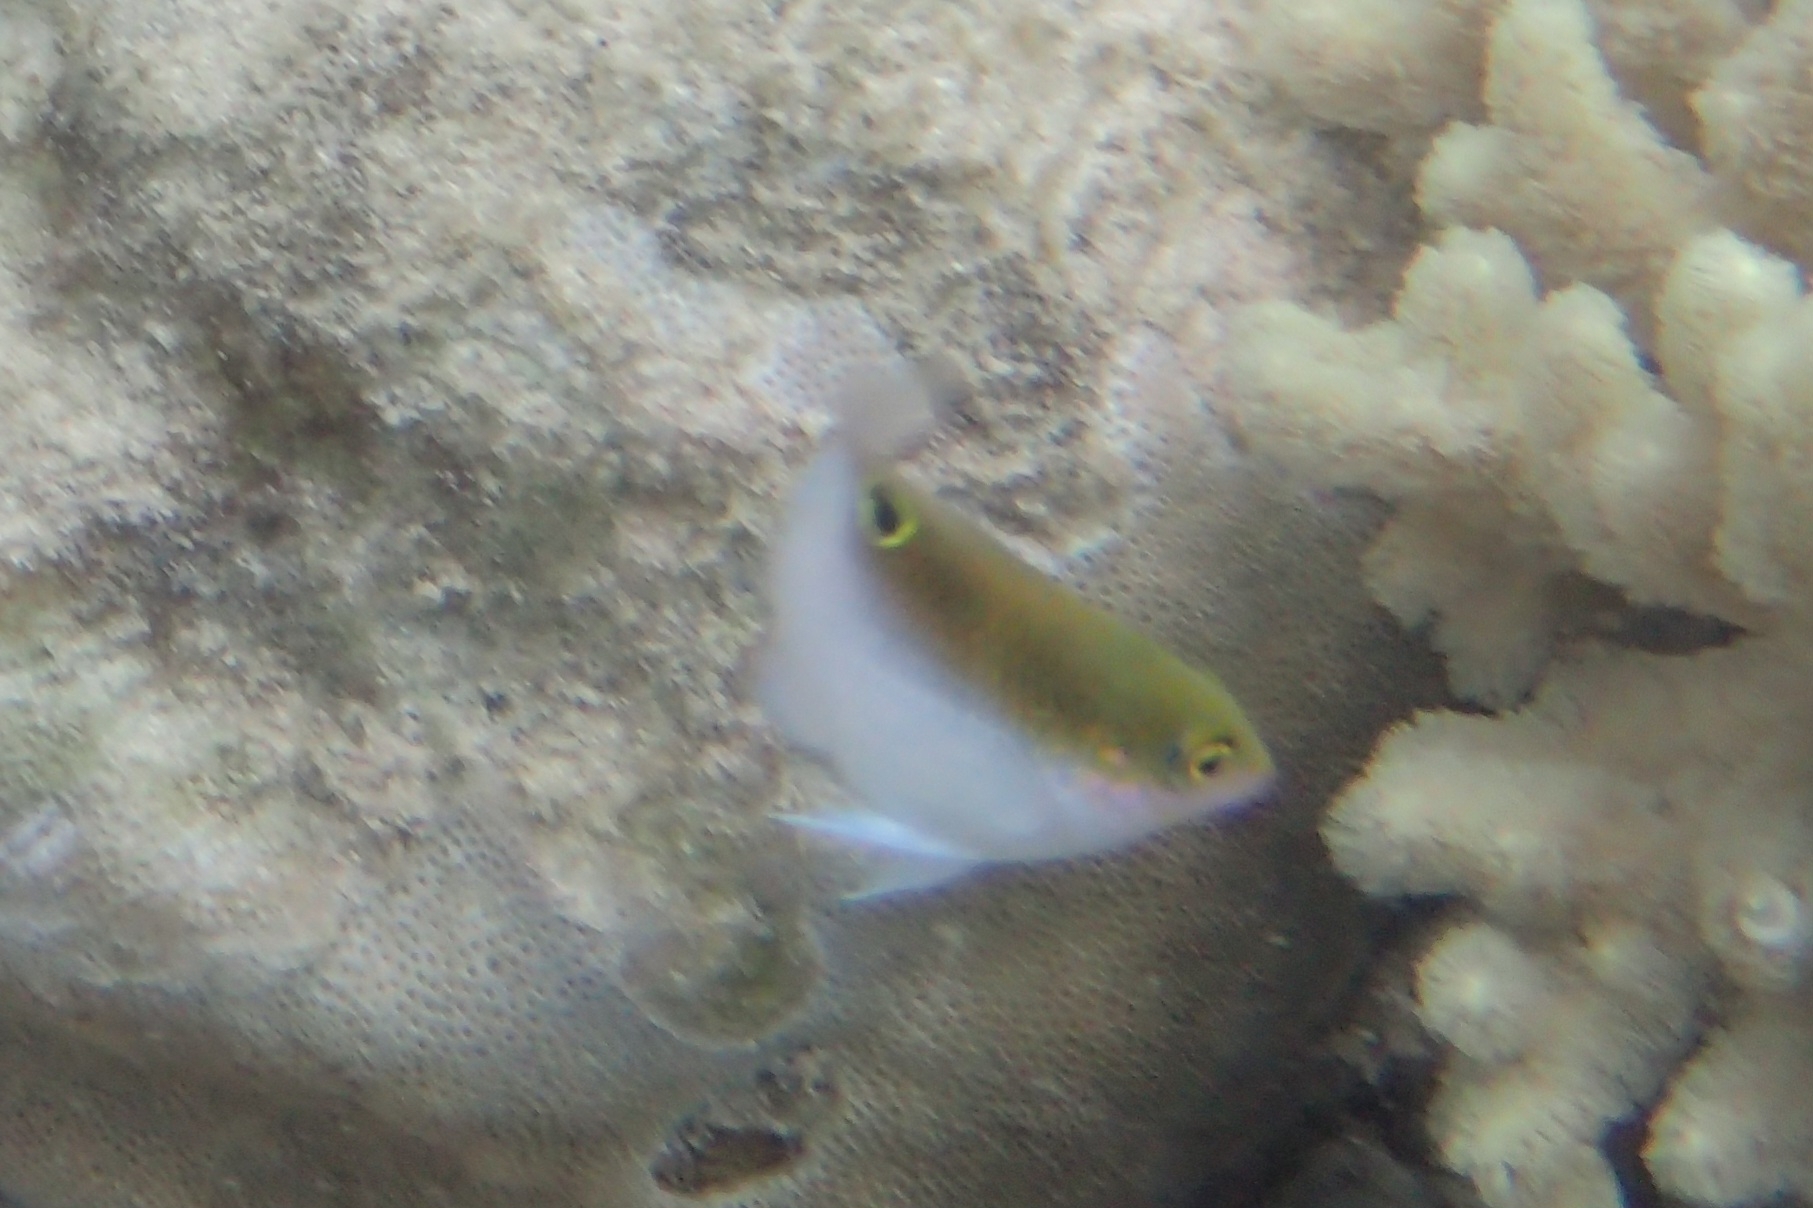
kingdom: Animalia
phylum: Chordata
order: Perciformes
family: Pomacentridae
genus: Dischistodus
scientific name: Dischistodus melanotus
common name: Black-vent damsel
